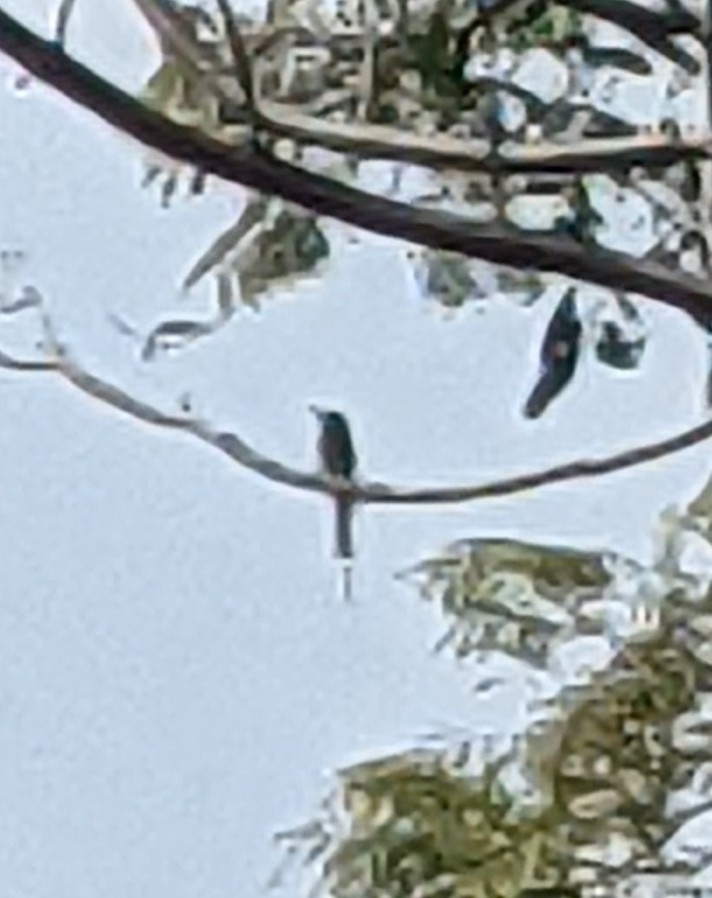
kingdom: Animalia
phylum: Chordata
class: Aves
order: Coraciiformes
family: Meropidae
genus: Merops
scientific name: Merops orientalis
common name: Green bee-eater
